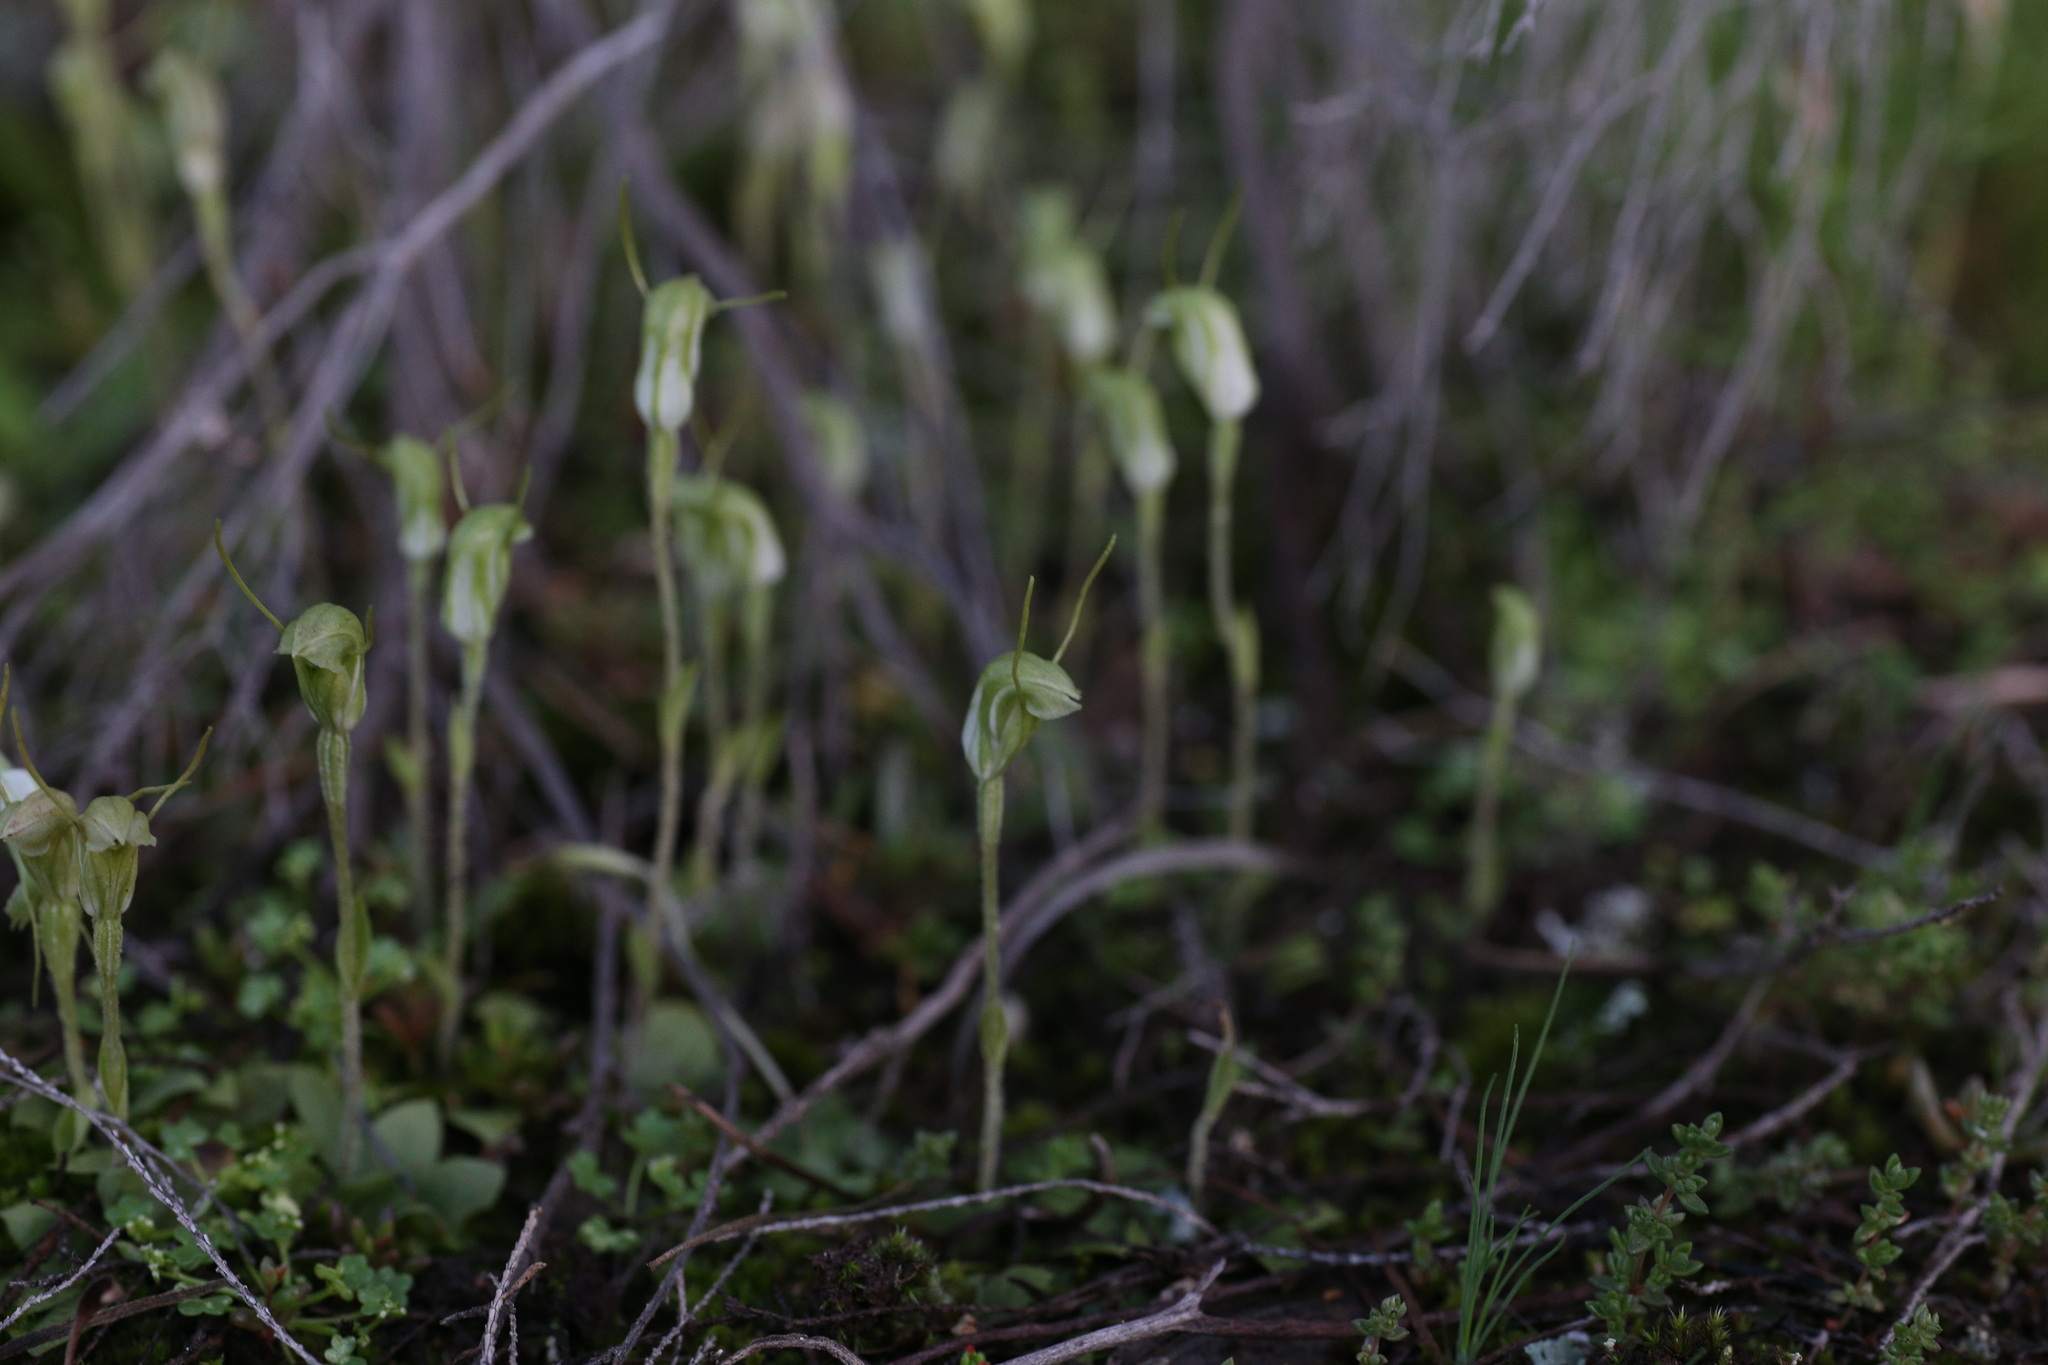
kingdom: Plantae
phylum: Tracheophyta
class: Liliopsida
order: Asparagales
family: Orchidaceae
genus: Pterostylis
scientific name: Pterostylis setulosa
